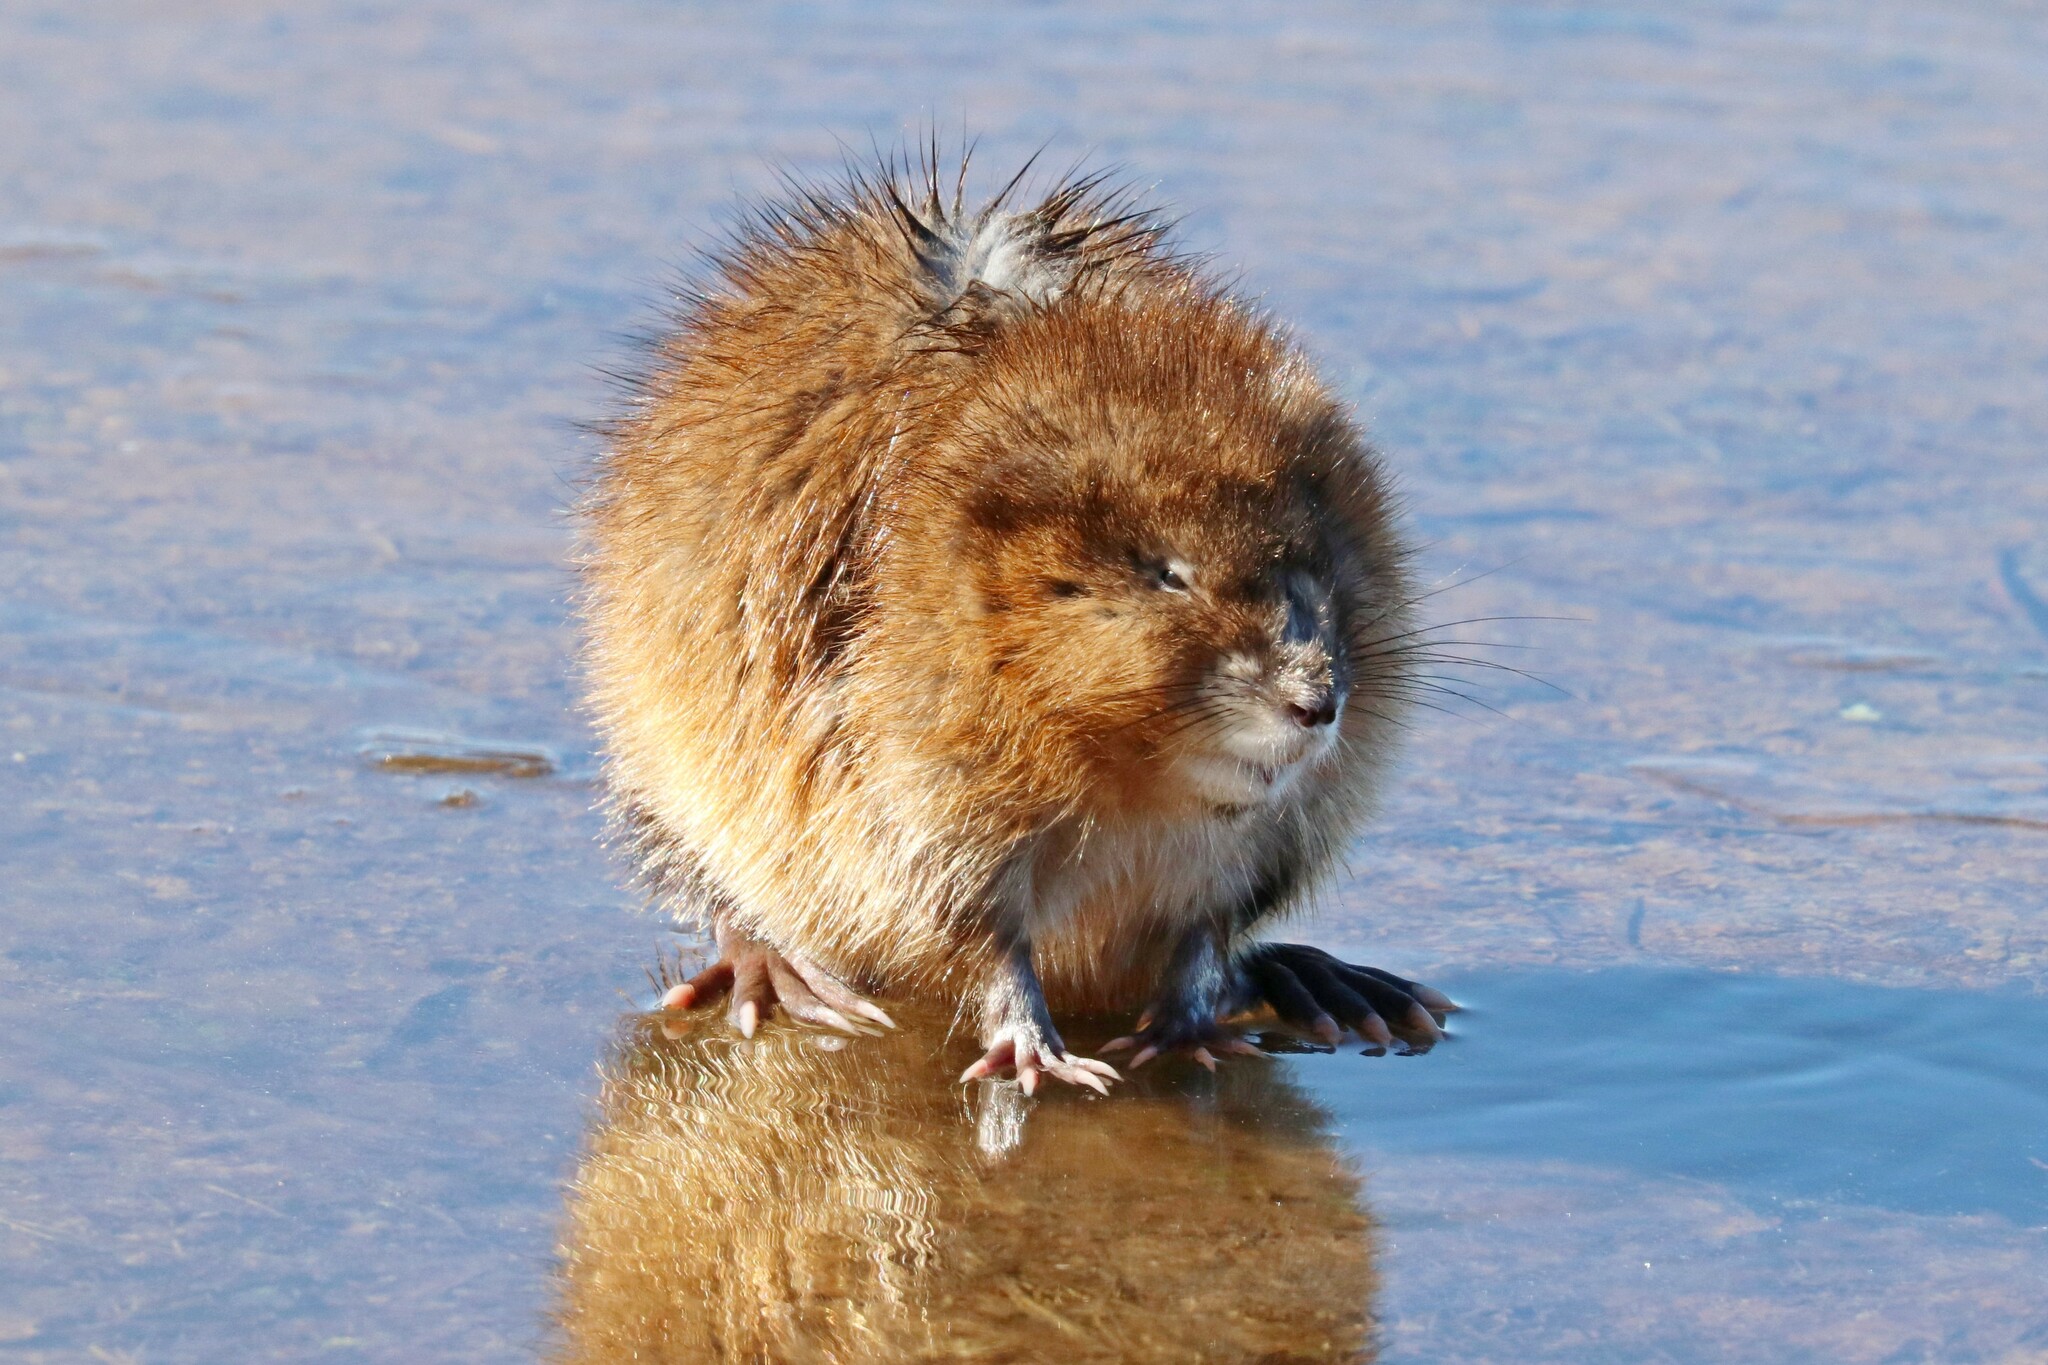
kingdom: Animalia
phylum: Chordata
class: Mammalia
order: Rodentia
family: Cricetidae
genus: Ondatra
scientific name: Ondatra zibethicus
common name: Muskrat
